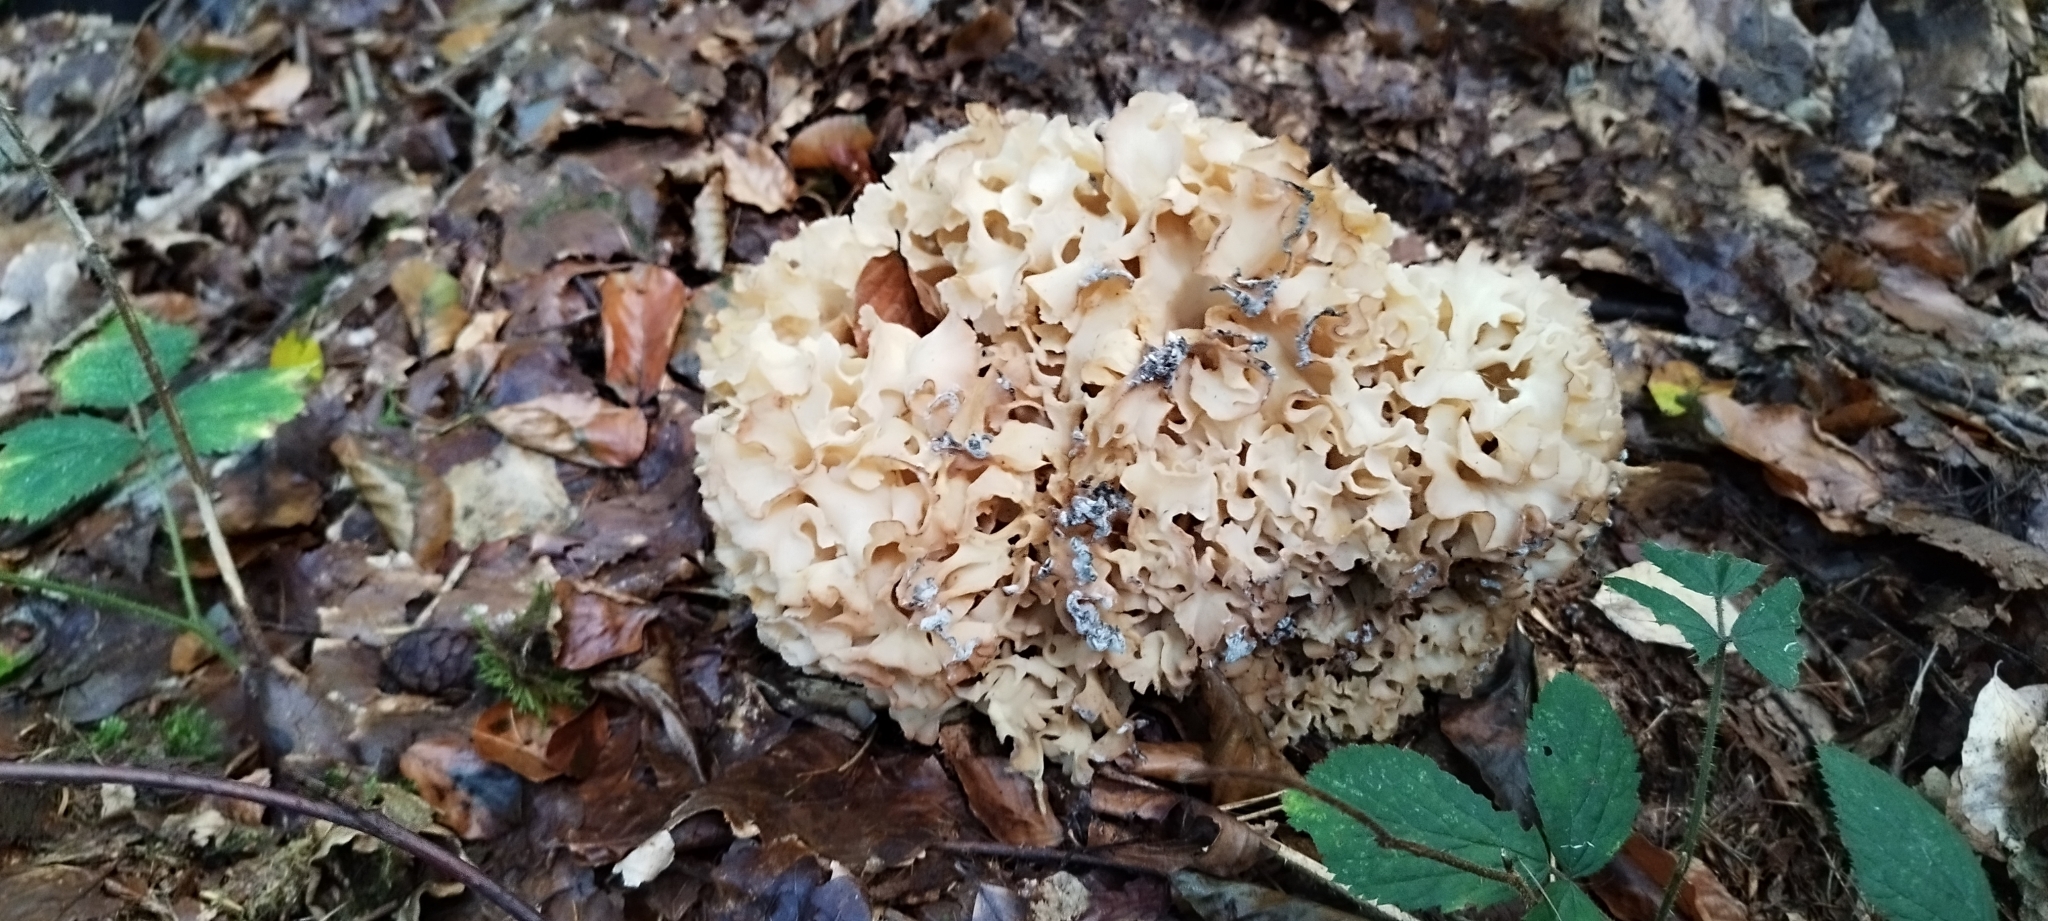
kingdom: Fungi
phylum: Basidiomycota
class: Agaricomycetes
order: Polyporales
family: Sparassidaceae
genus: Sparassis
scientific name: Sparassis crispa
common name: Brain fungus
